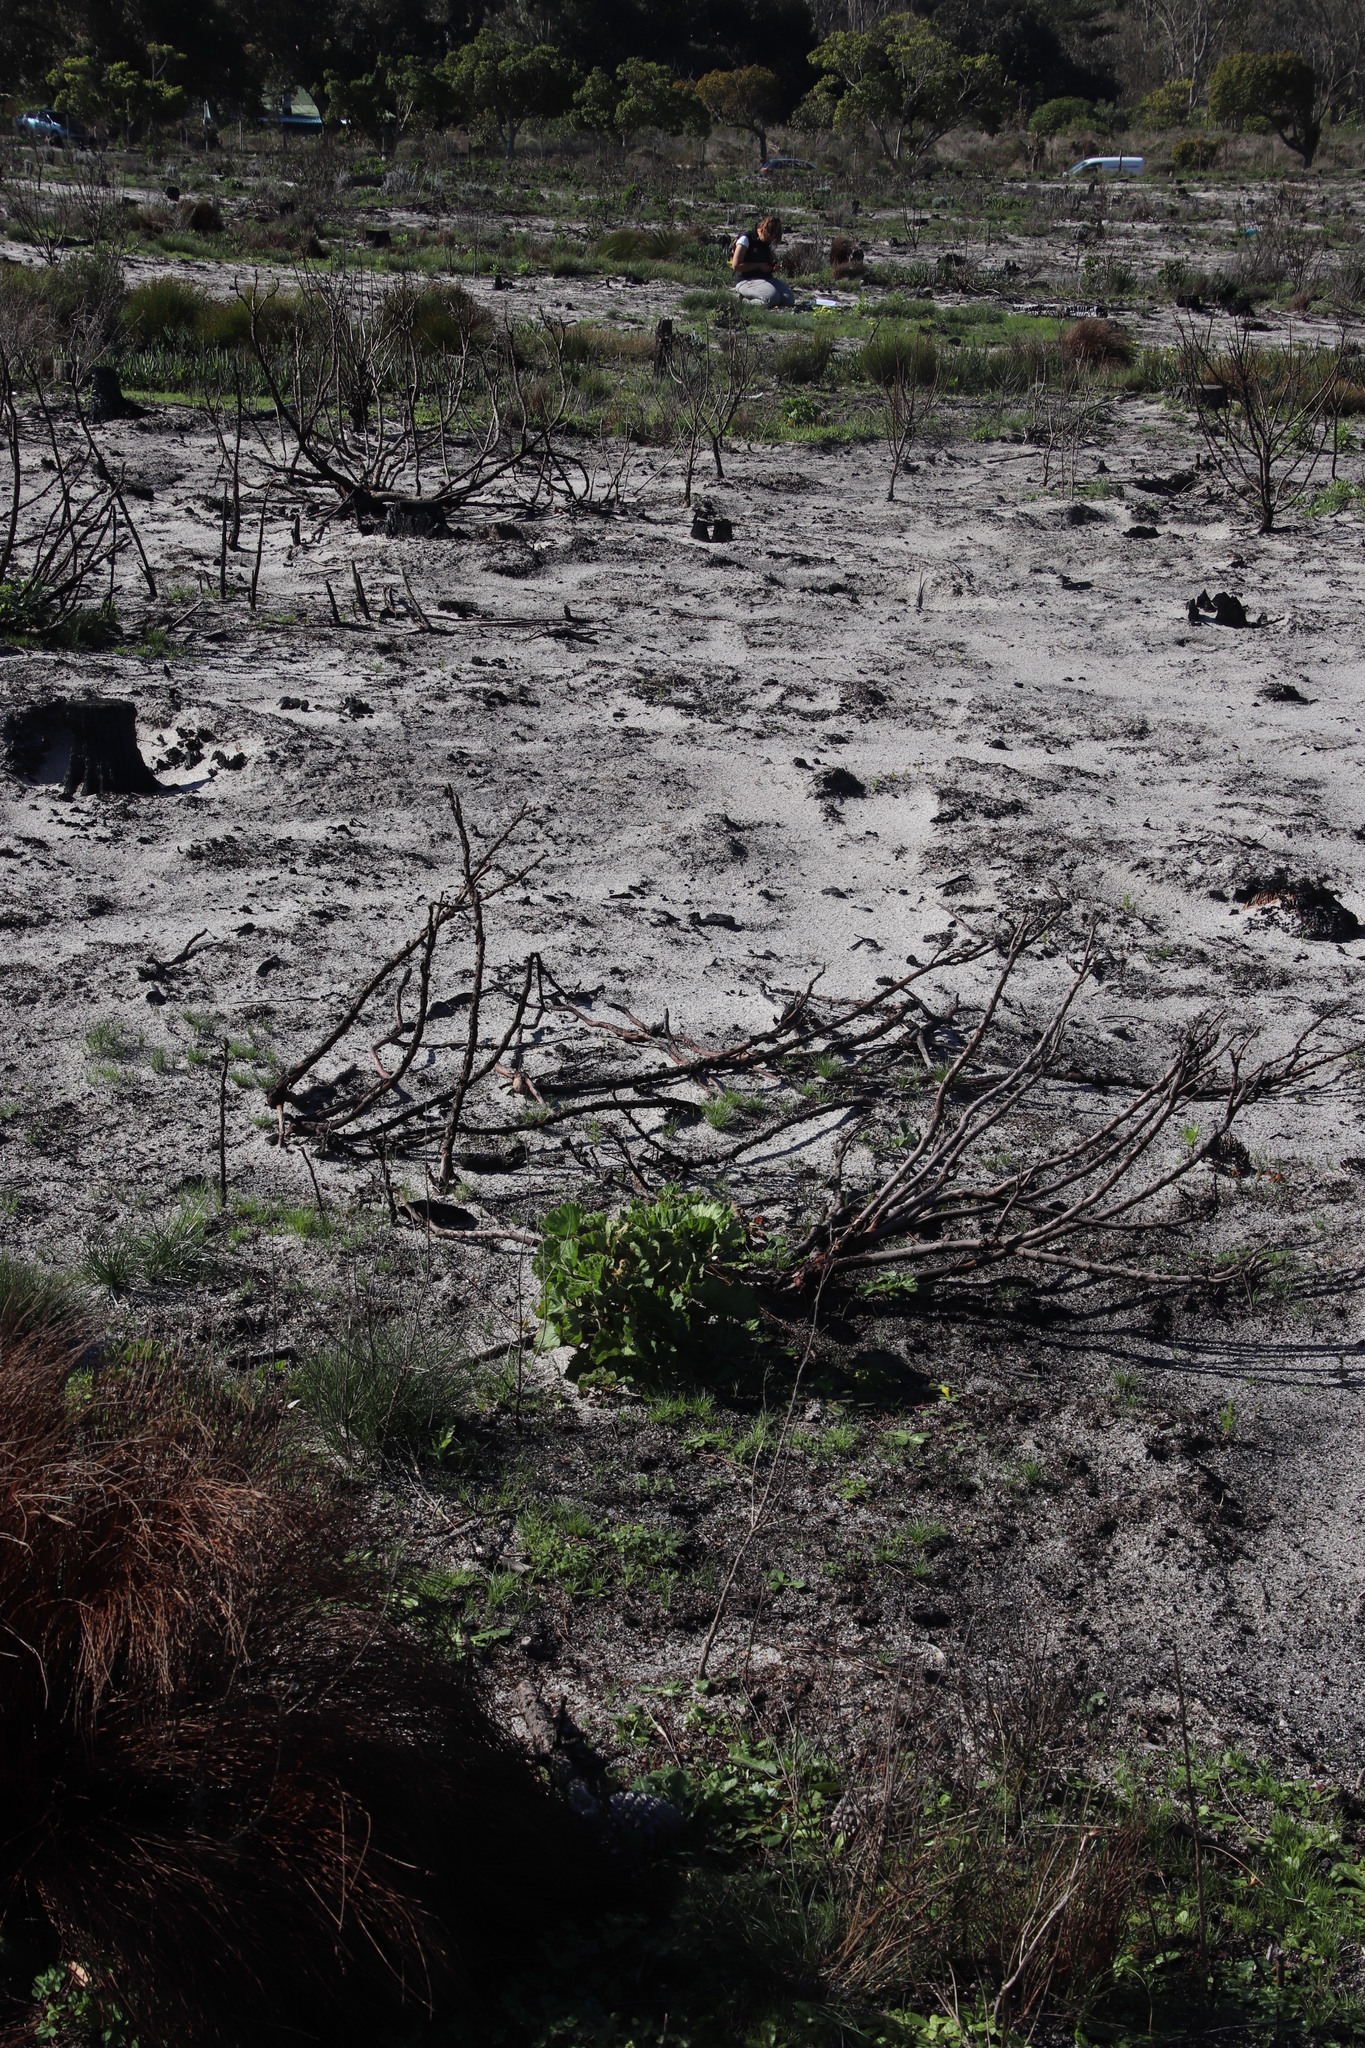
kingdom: Plantae
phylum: Tracheophyta
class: Magnoliopsida
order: Geraniales
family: Geraniaceae
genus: Pelargonium
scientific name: Pelargonium cucullatum
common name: Tree pelargonium
